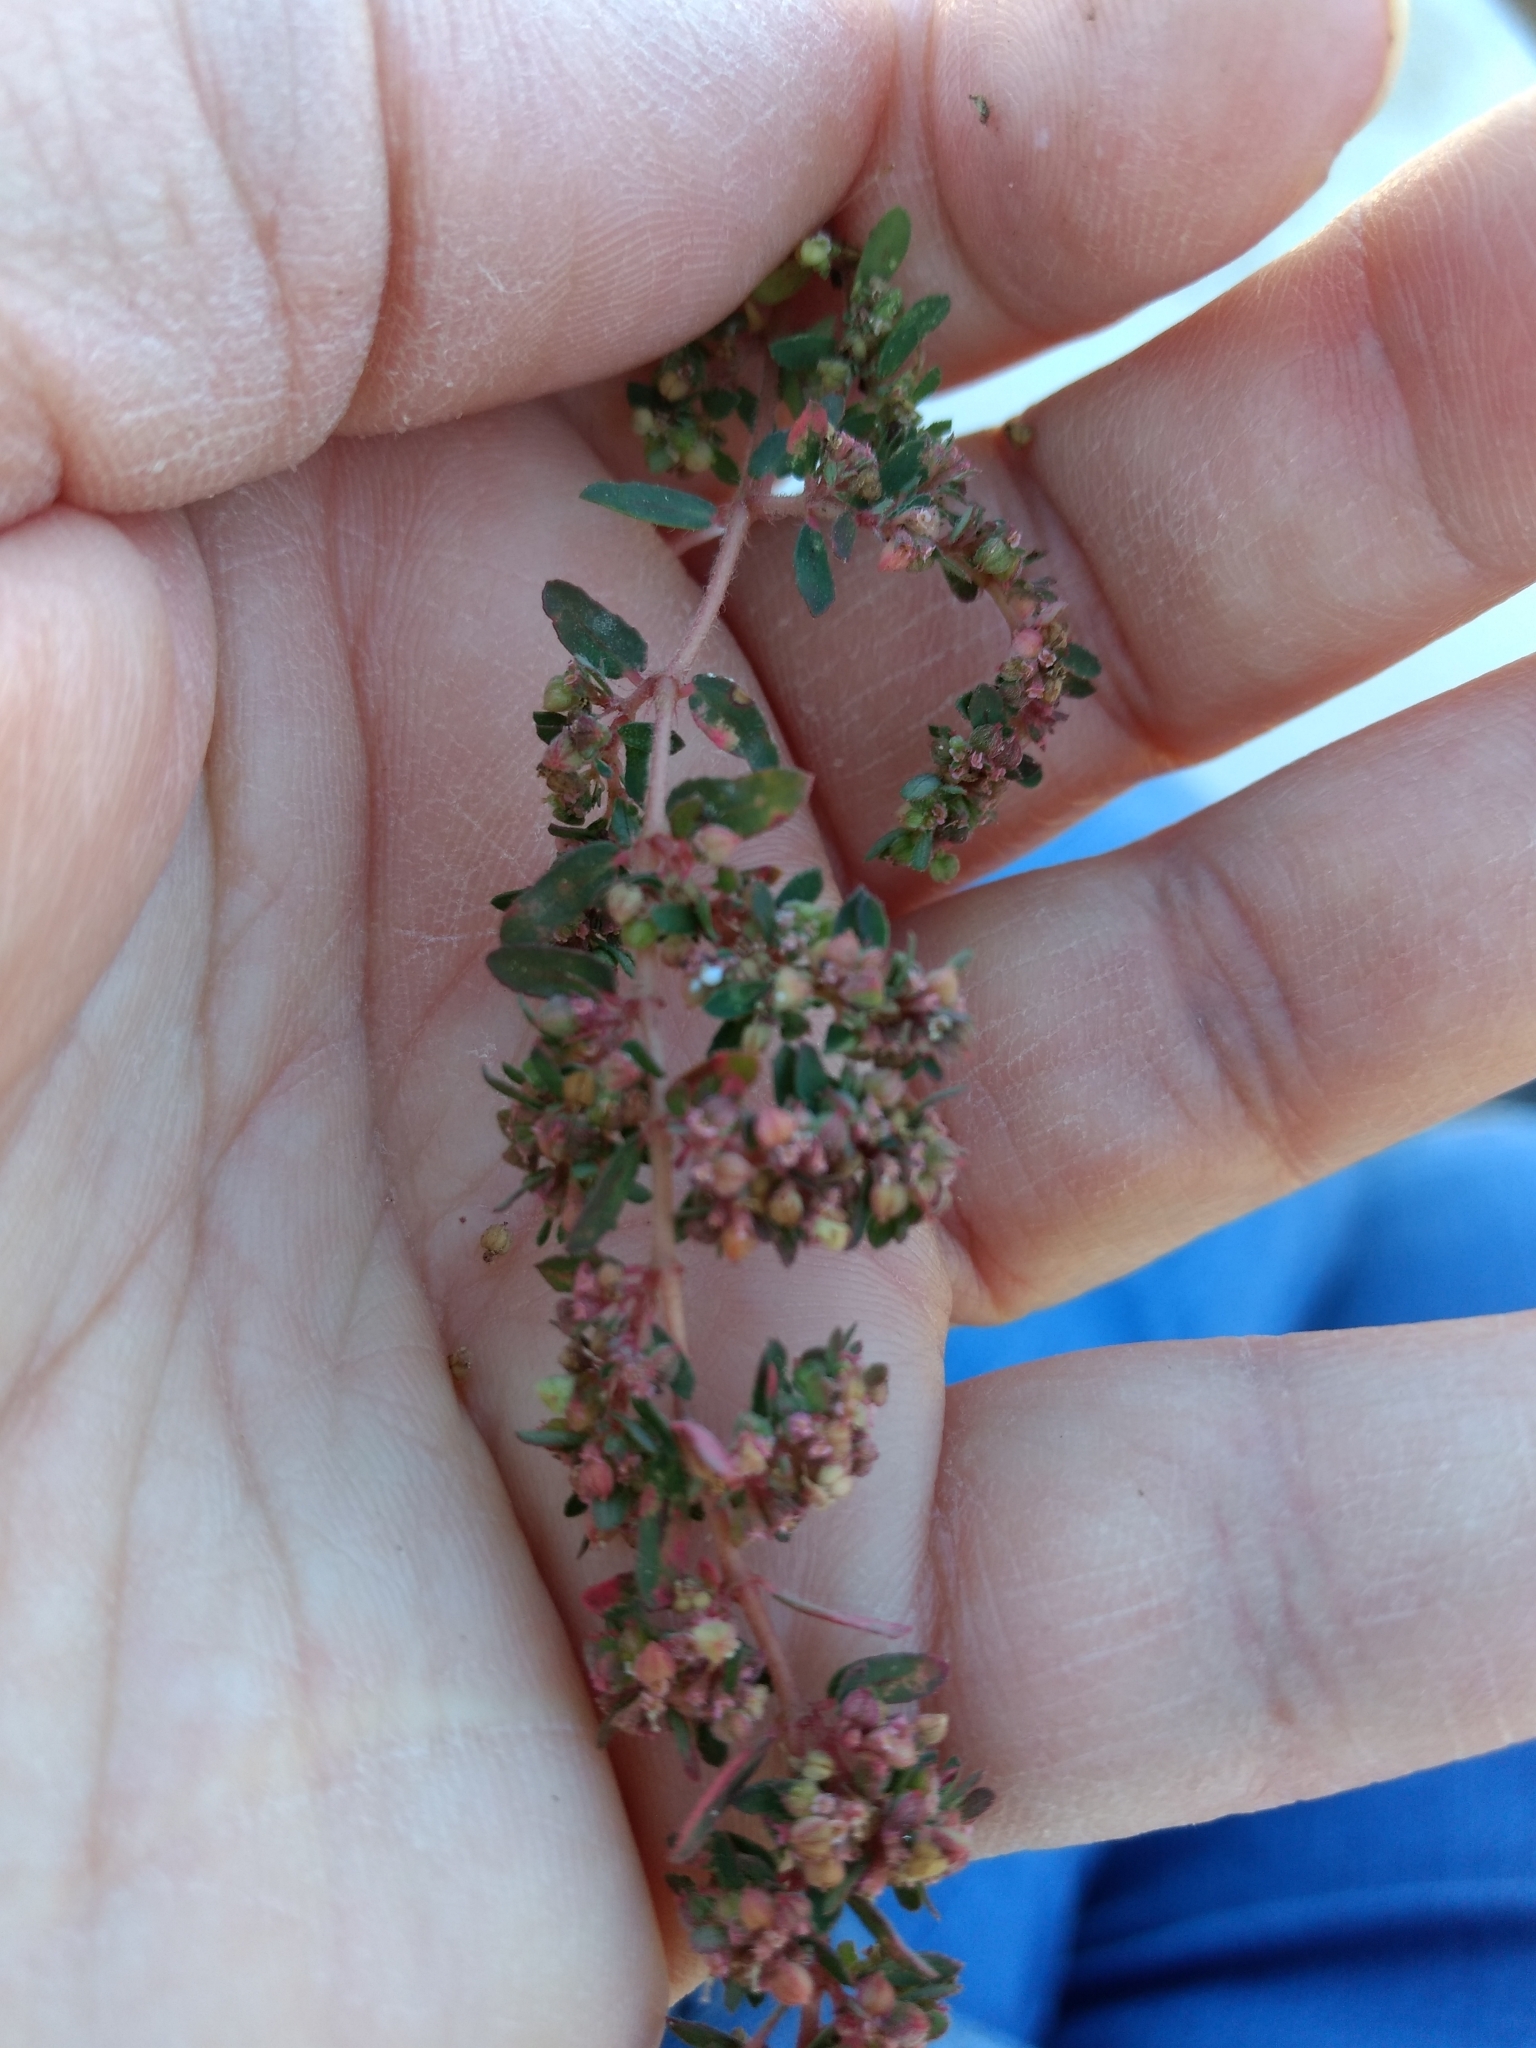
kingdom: Plantae
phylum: Tracheophyta
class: Magnoliopsida
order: Malpighiales
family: Euphorbiaceae
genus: Euphorbia
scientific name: Euphorbia maculata
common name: Spotted spurge
